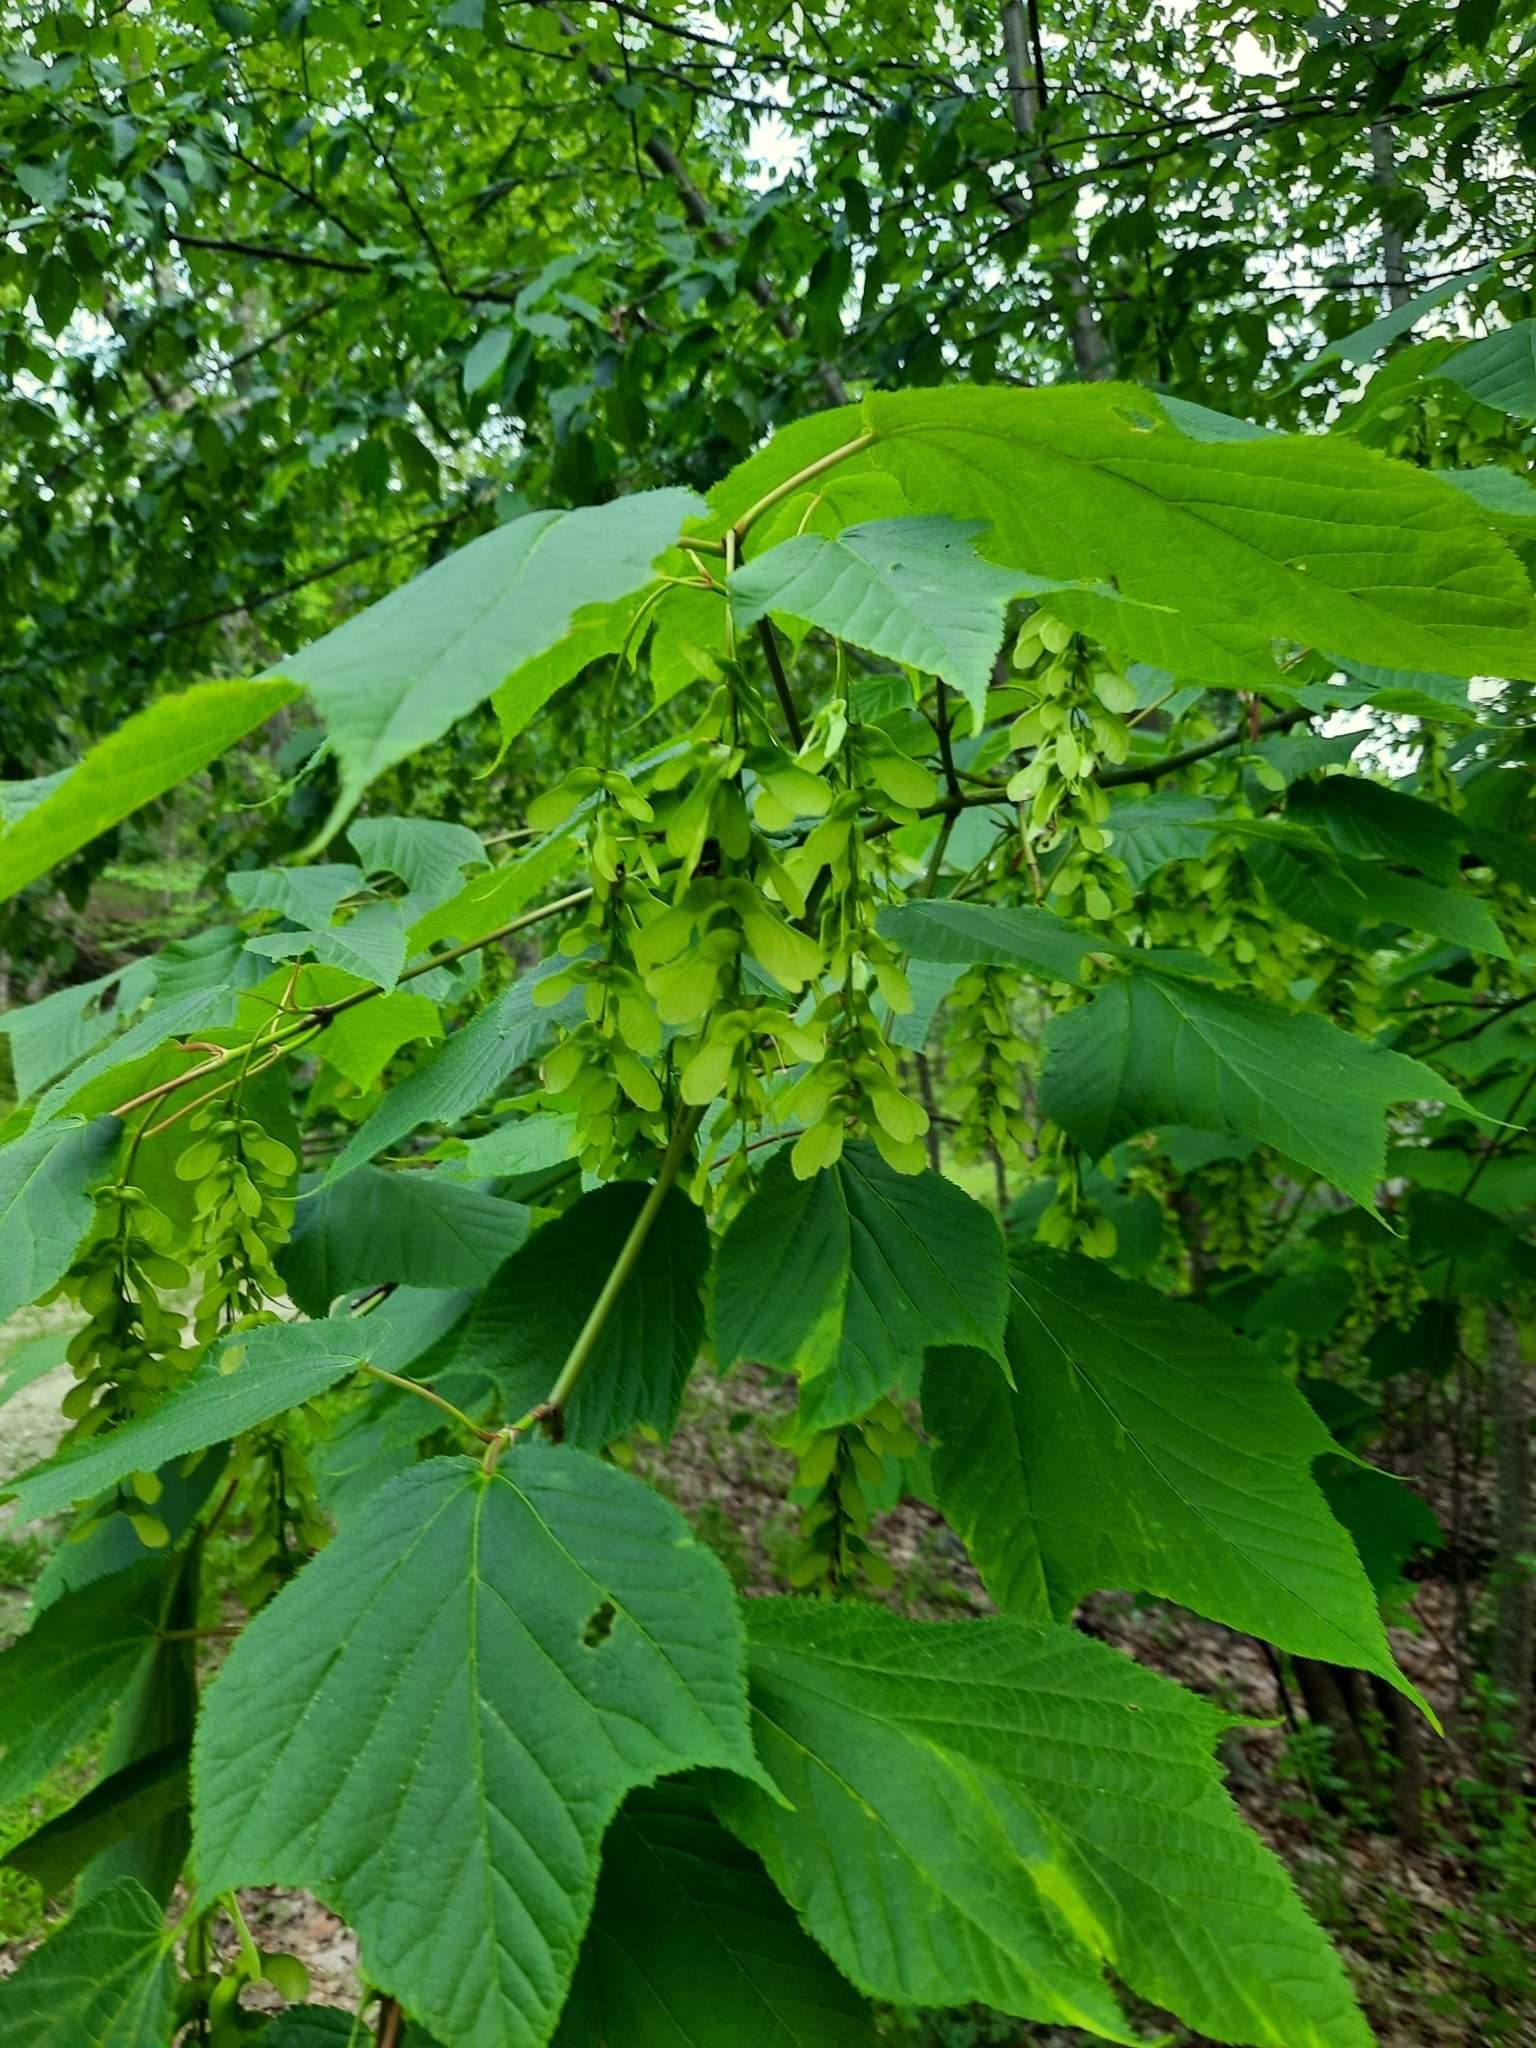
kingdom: Plantae
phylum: Tracheophyta
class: Magnoliopsida
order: Sapindales
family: Sapindaceae
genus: Acer
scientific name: Acer pensylvanicum
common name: Moosewood
